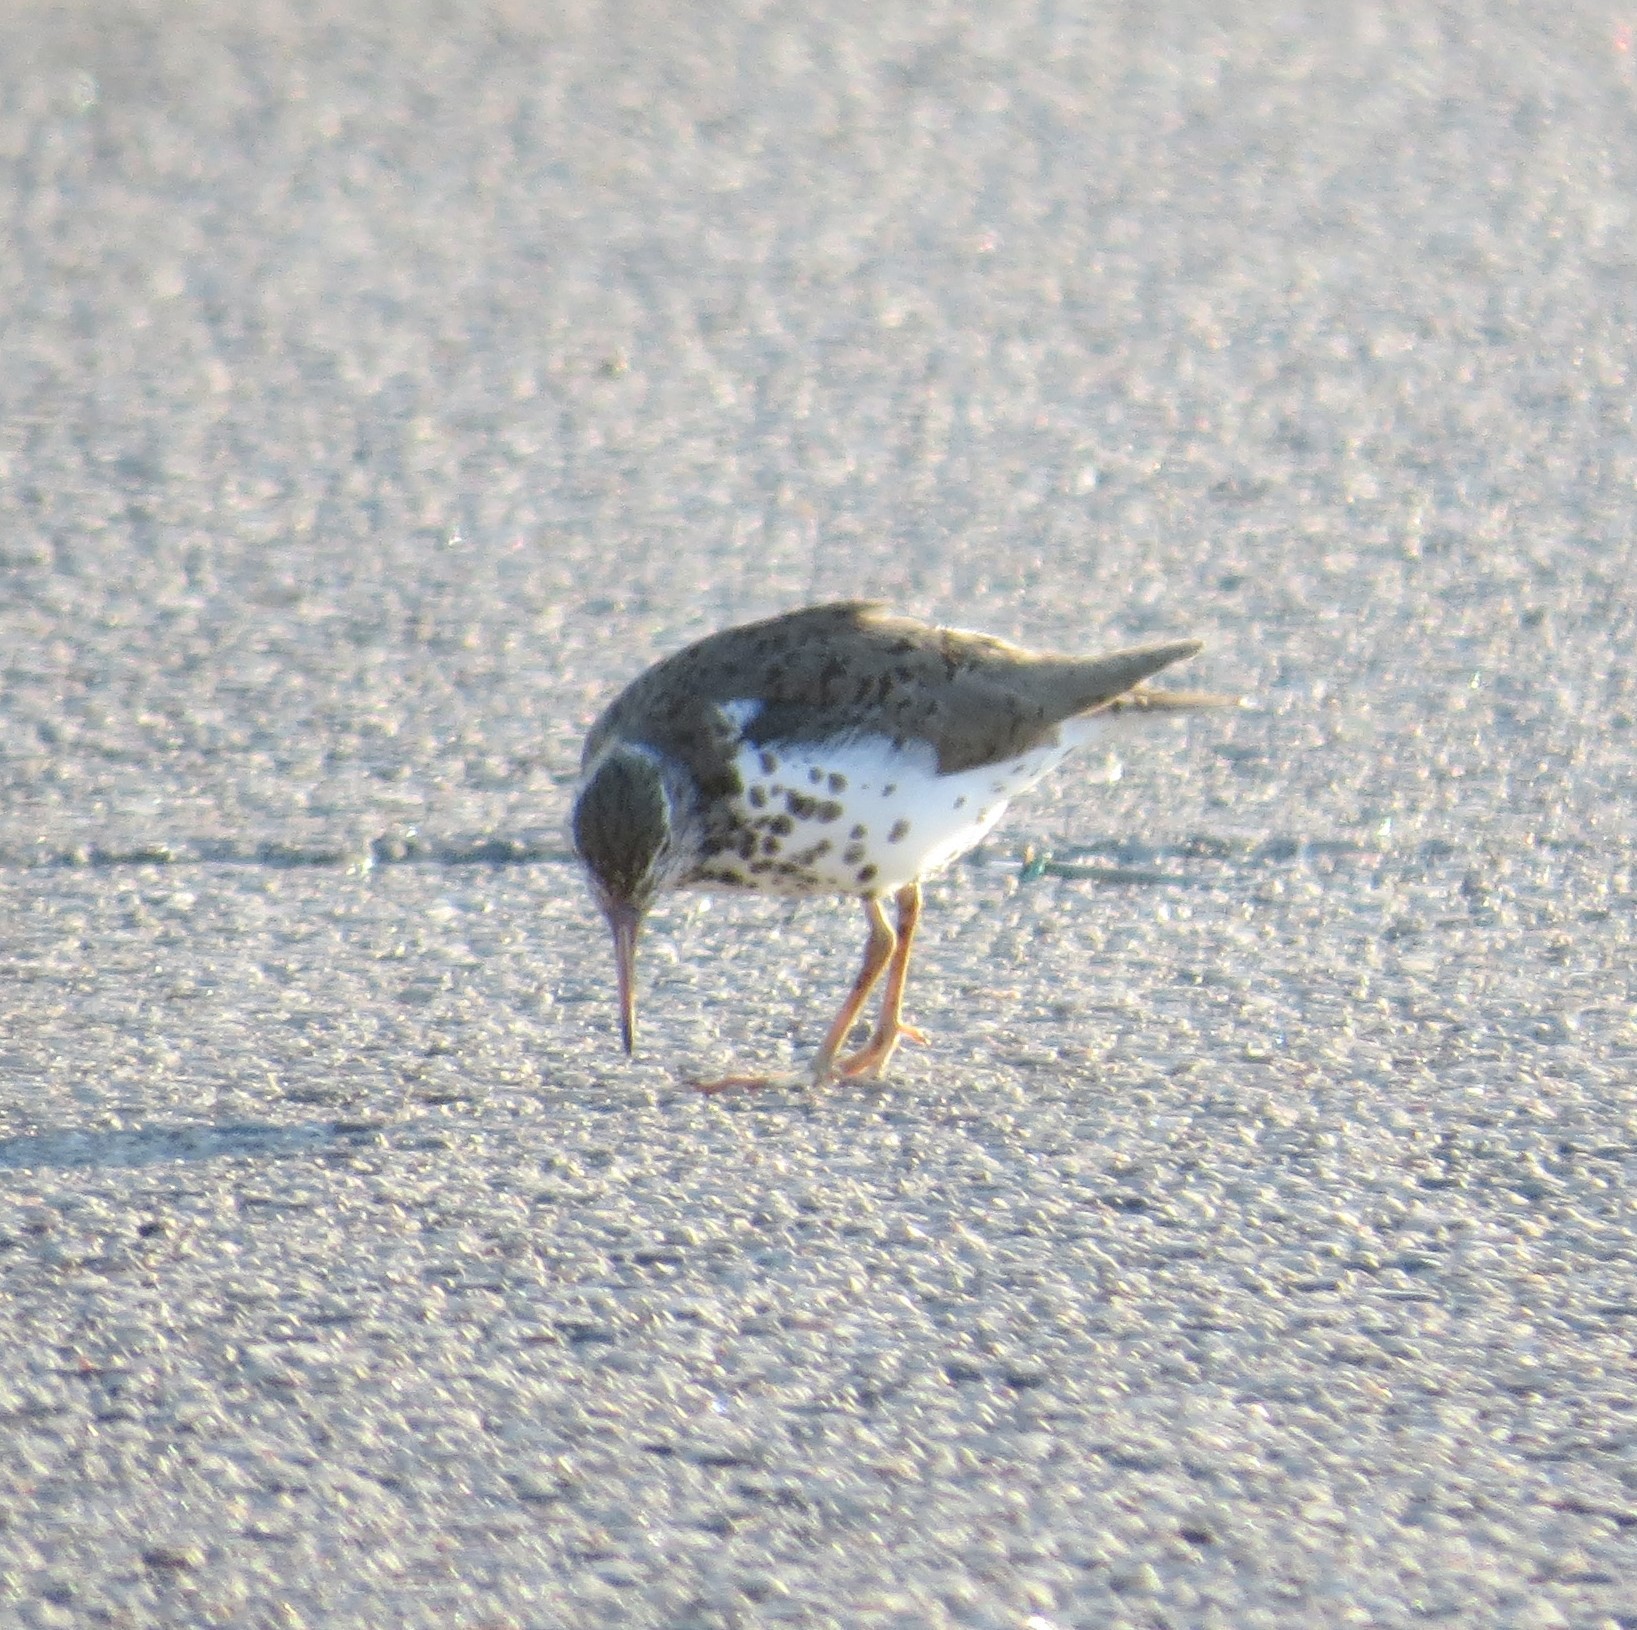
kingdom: Animalia
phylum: Chordata
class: Aves
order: Charadriiformes
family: Scolopacidae
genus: Actitis
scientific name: Actitis macularius
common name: Spotted sandpiper
